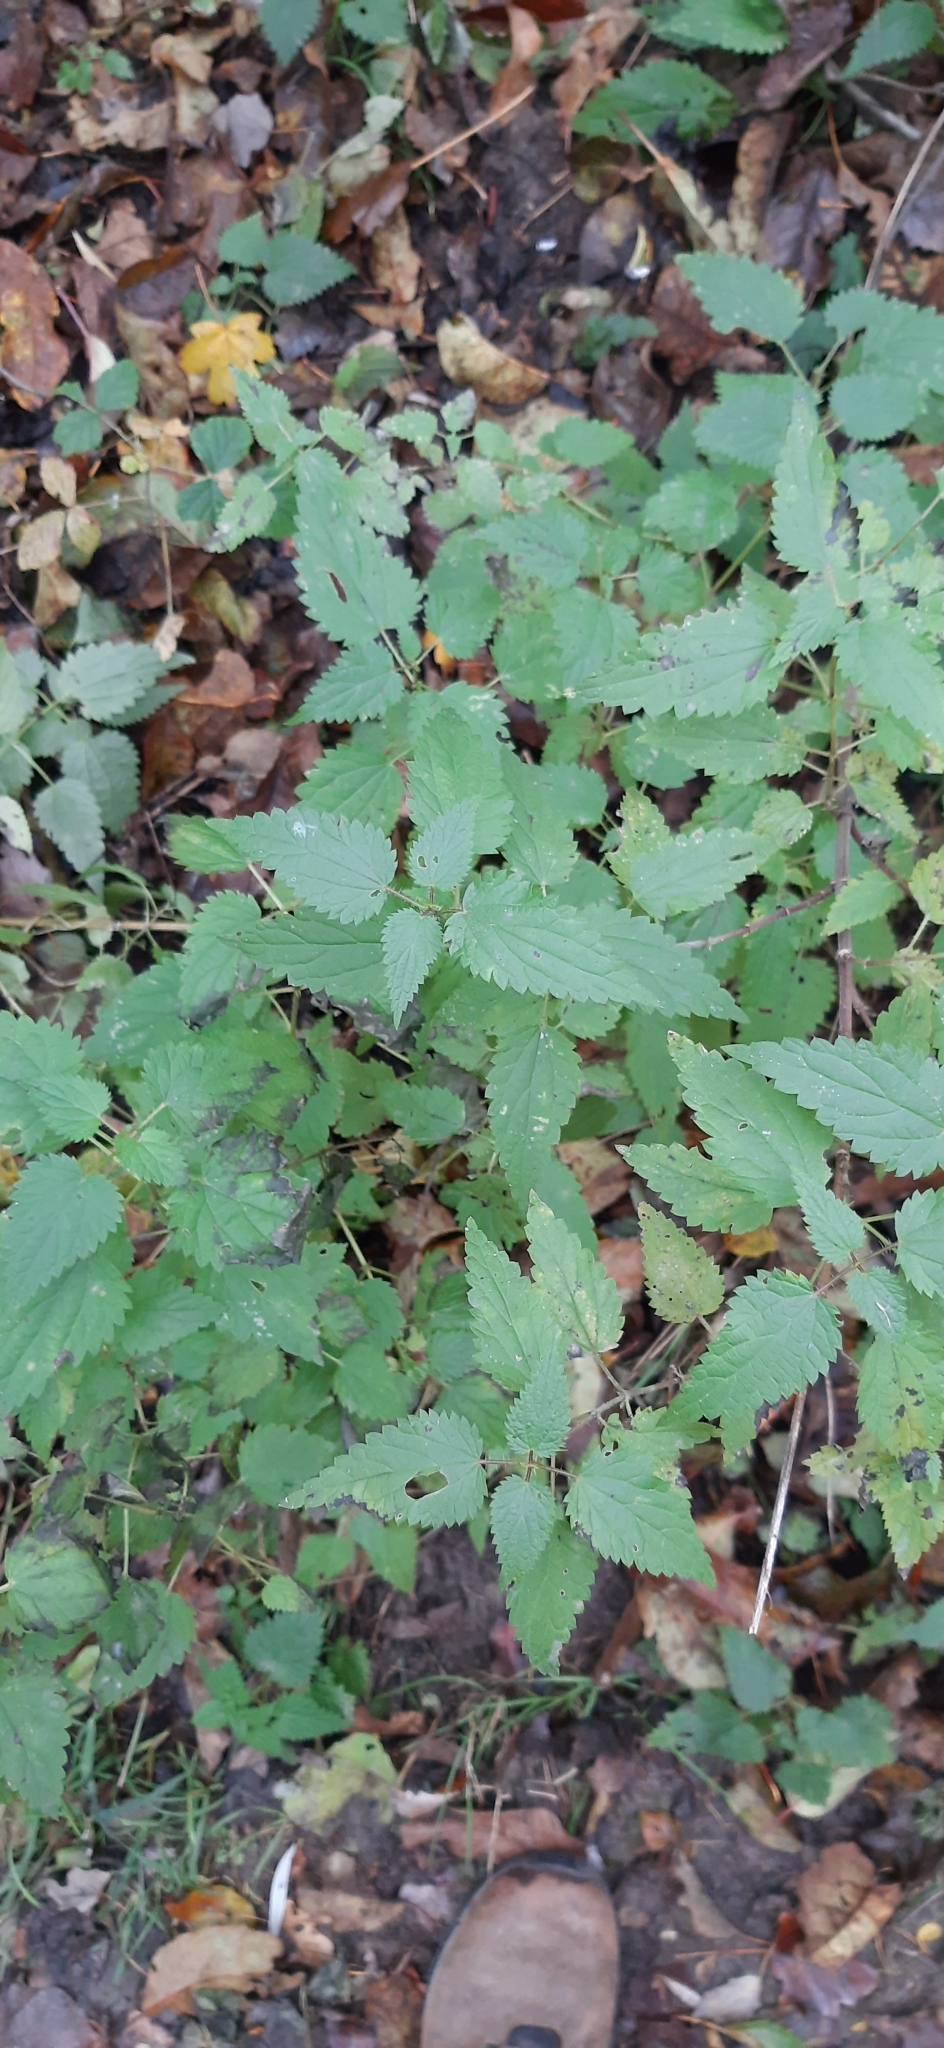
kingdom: Plantae
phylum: Tracheophyta
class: Magnoliopsida
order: Rosales
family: Urticaceae
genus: Urtica
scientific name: Urtica dioica
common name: Common nettle
